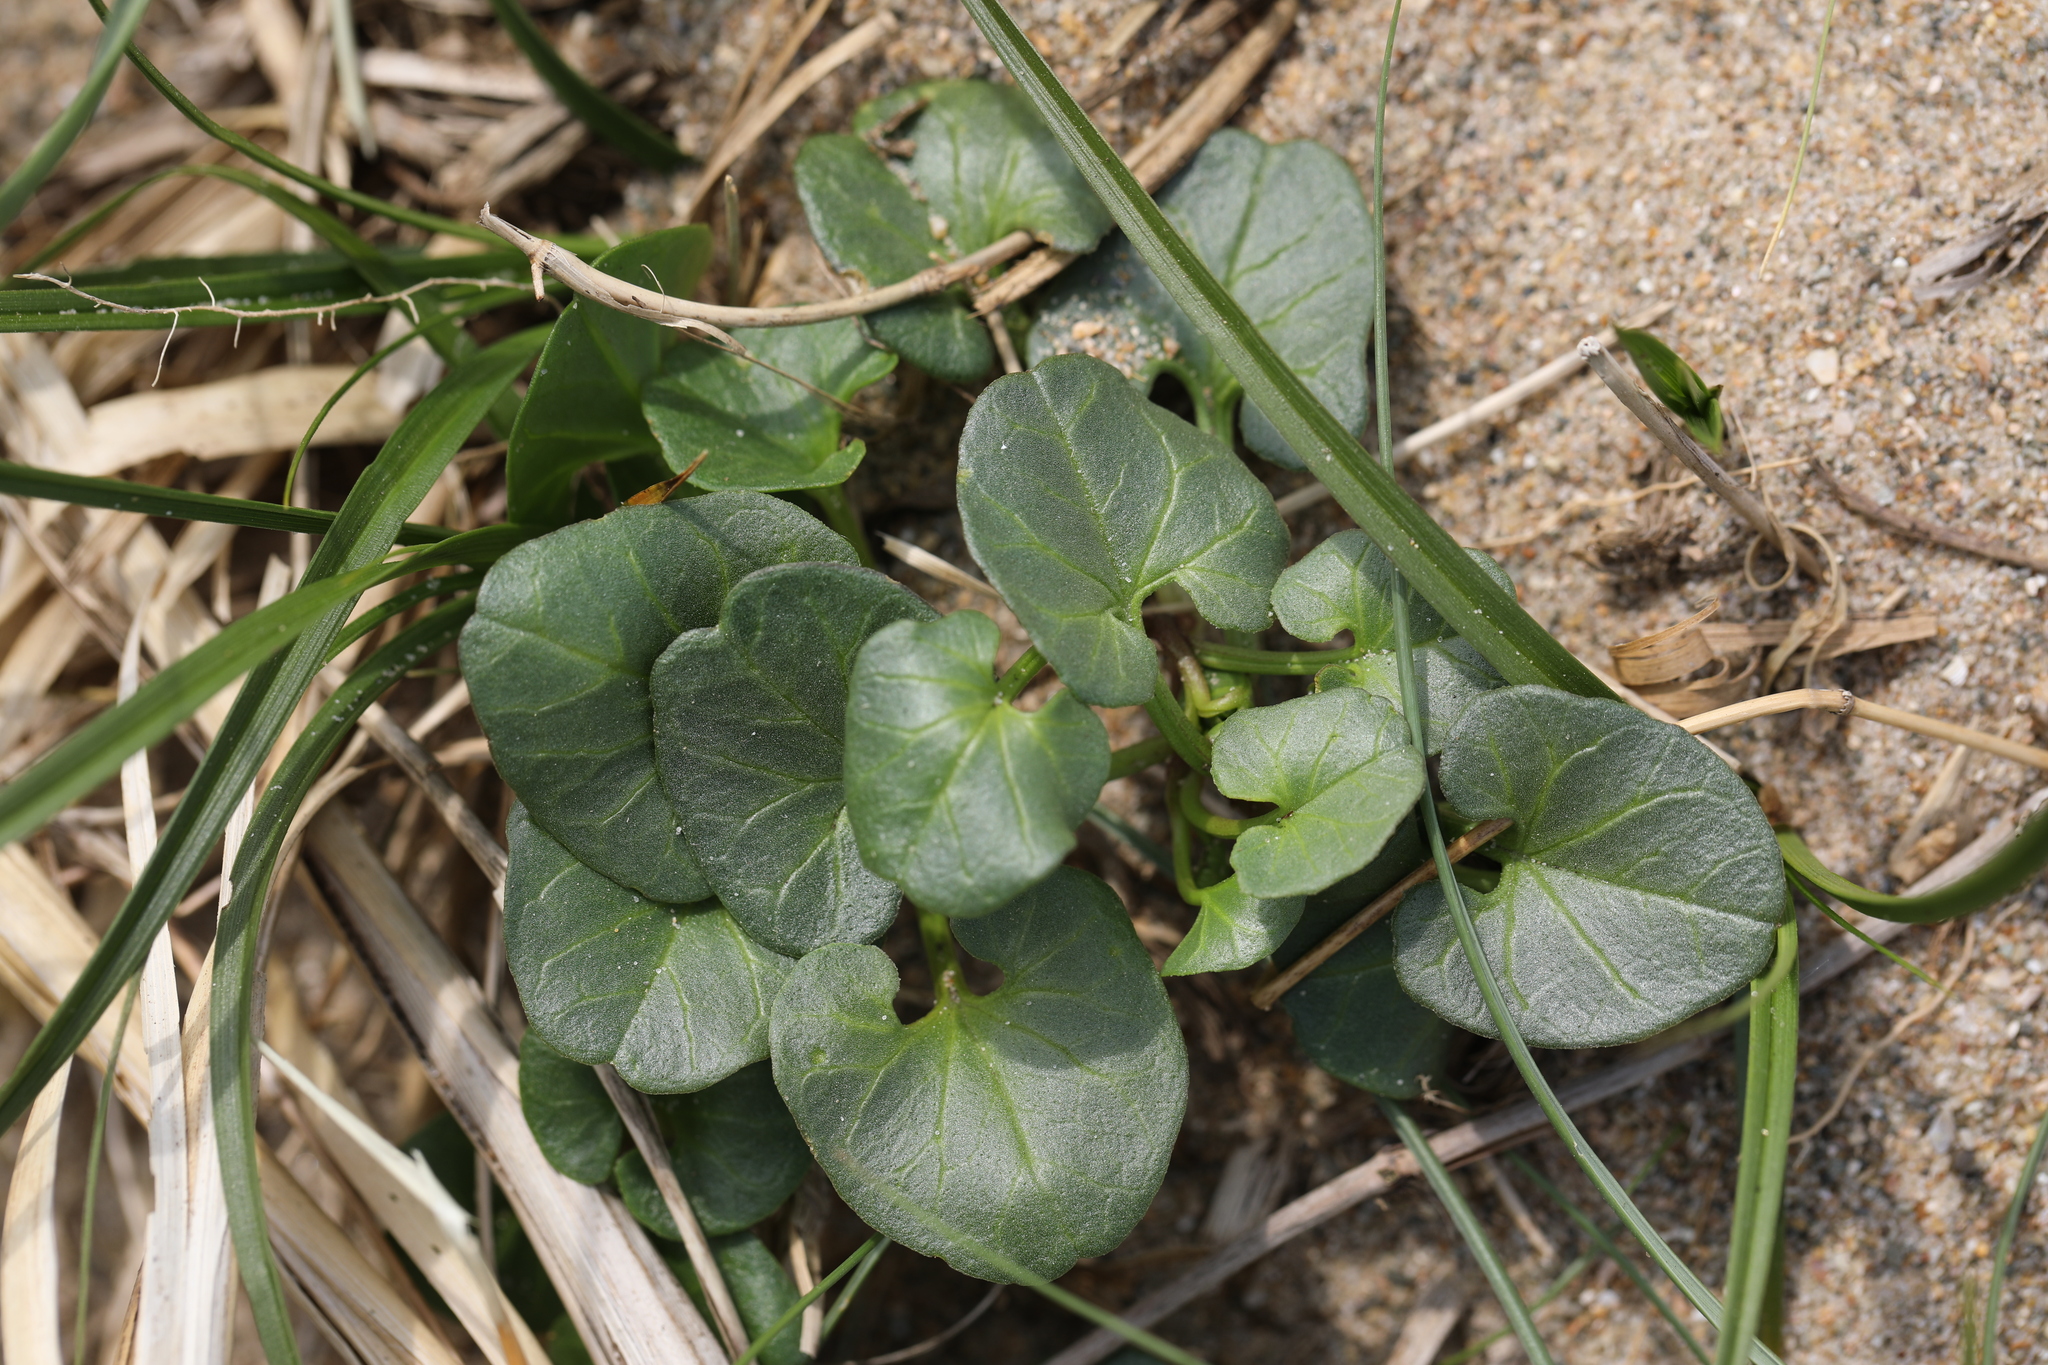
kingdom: Plantae
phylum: Tracheophyta
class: Magnoliopsida
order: Solanales
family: Convolvulaceae
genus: Calystegia
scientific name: Calystegia soldanella
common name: Sea bindweed
